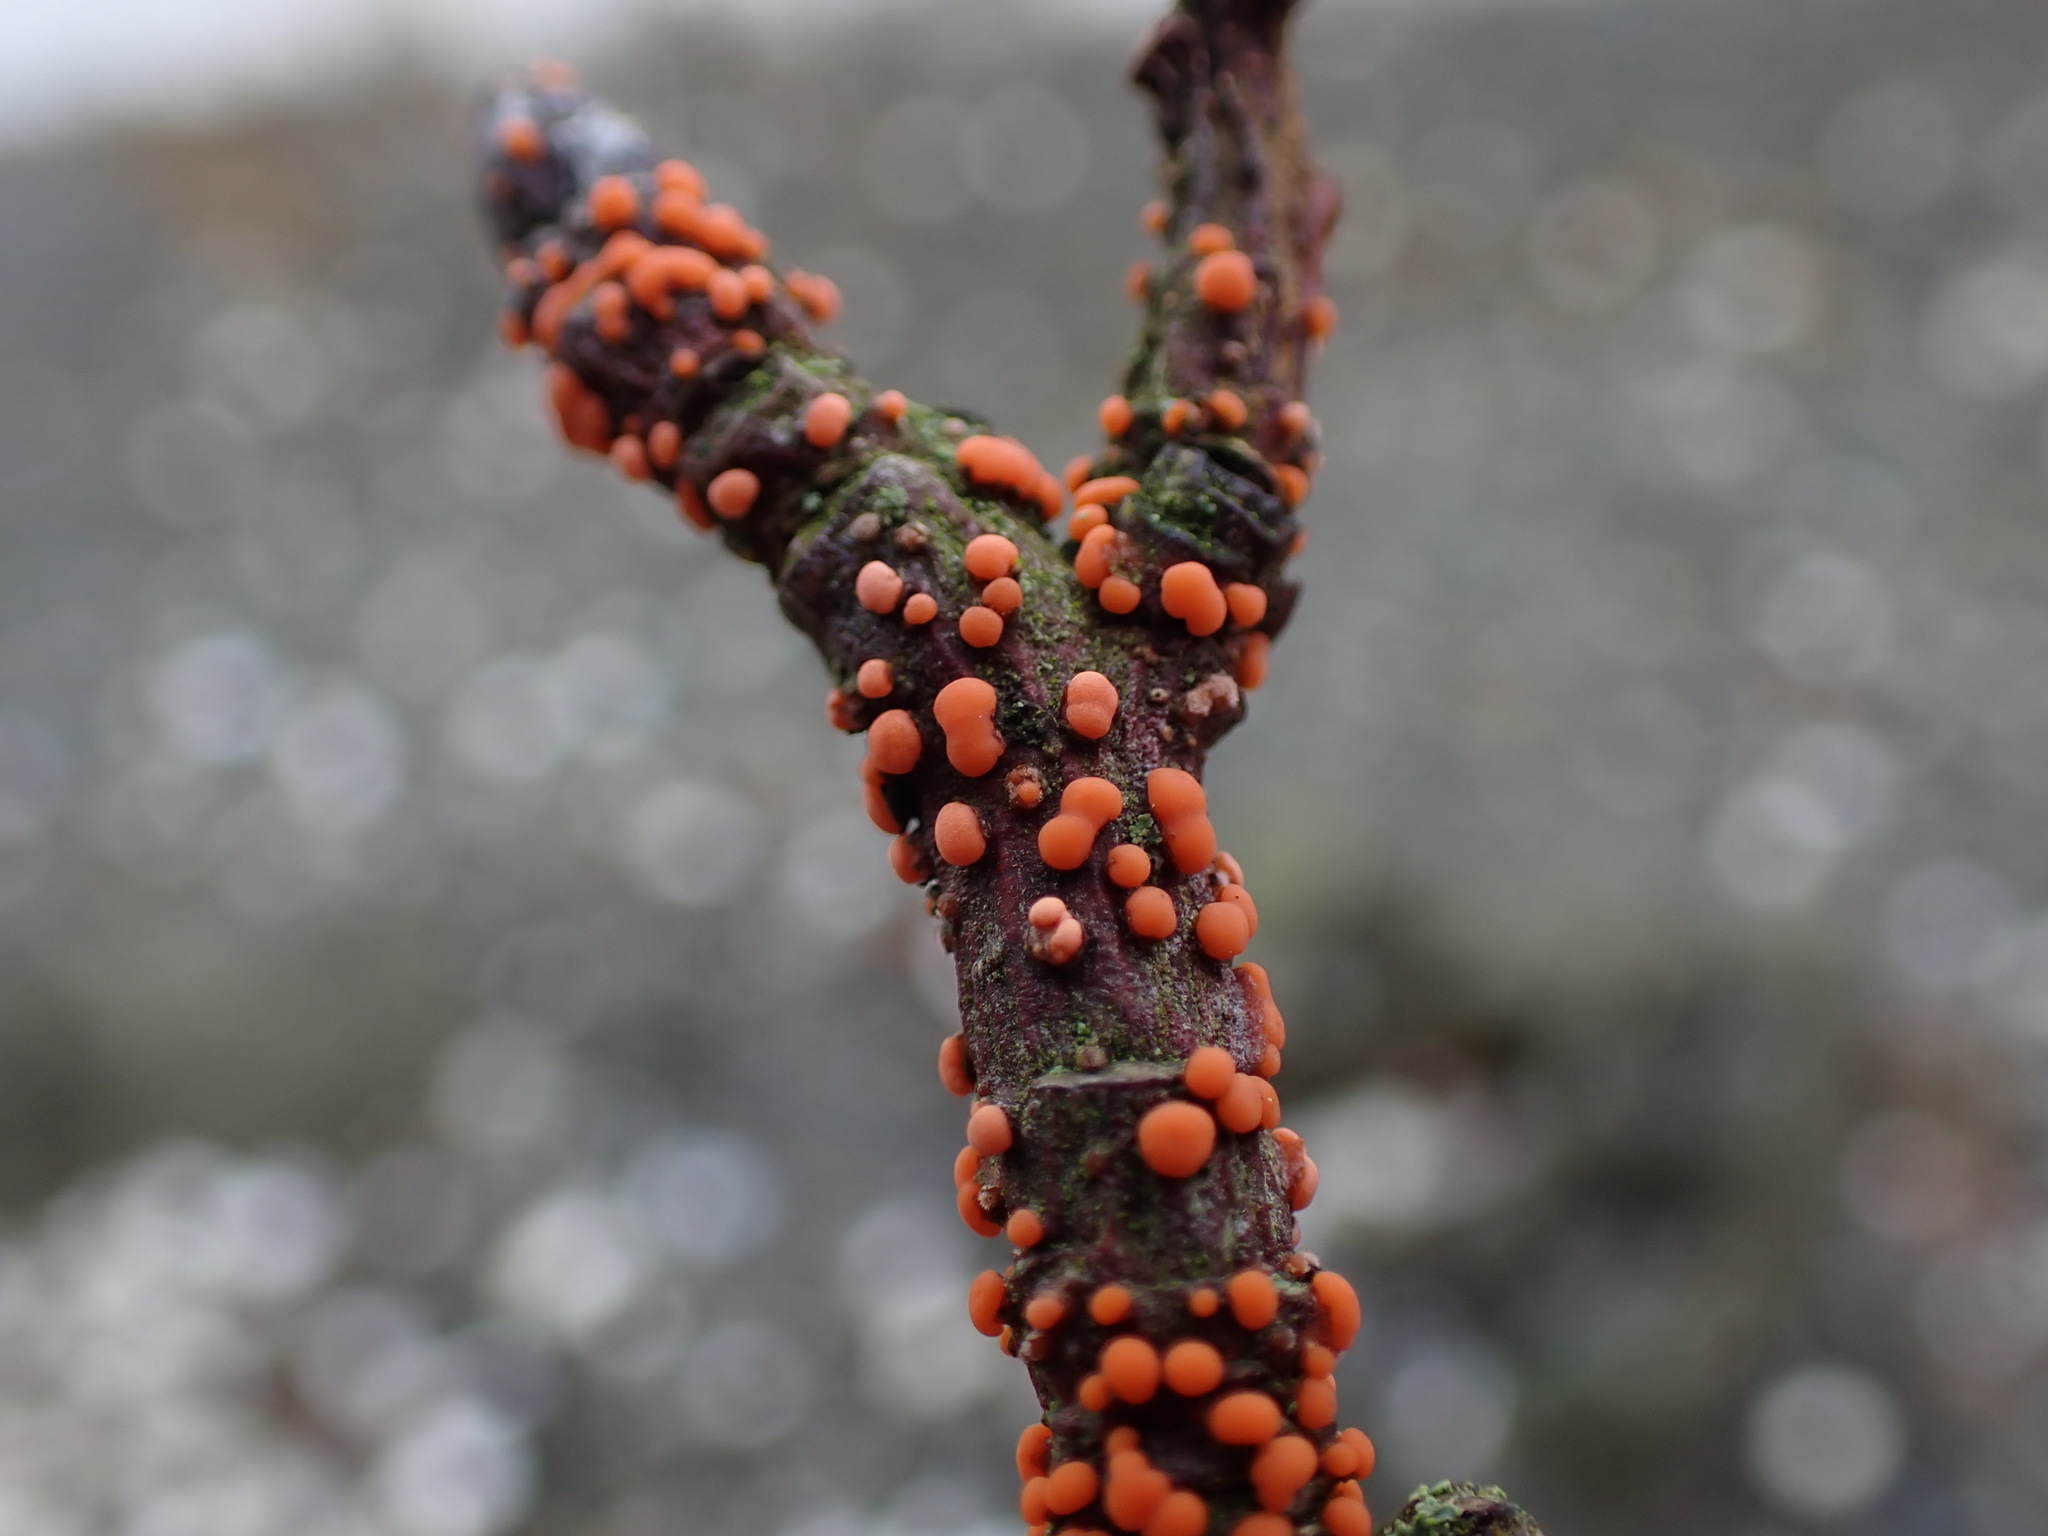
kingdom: Fungi
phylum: Ascomycota
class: Sordariomycetes
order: Hypocreales
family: Nectriaceae
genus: Nectria
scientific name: Nectria cinnabarina
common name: Coral spot
